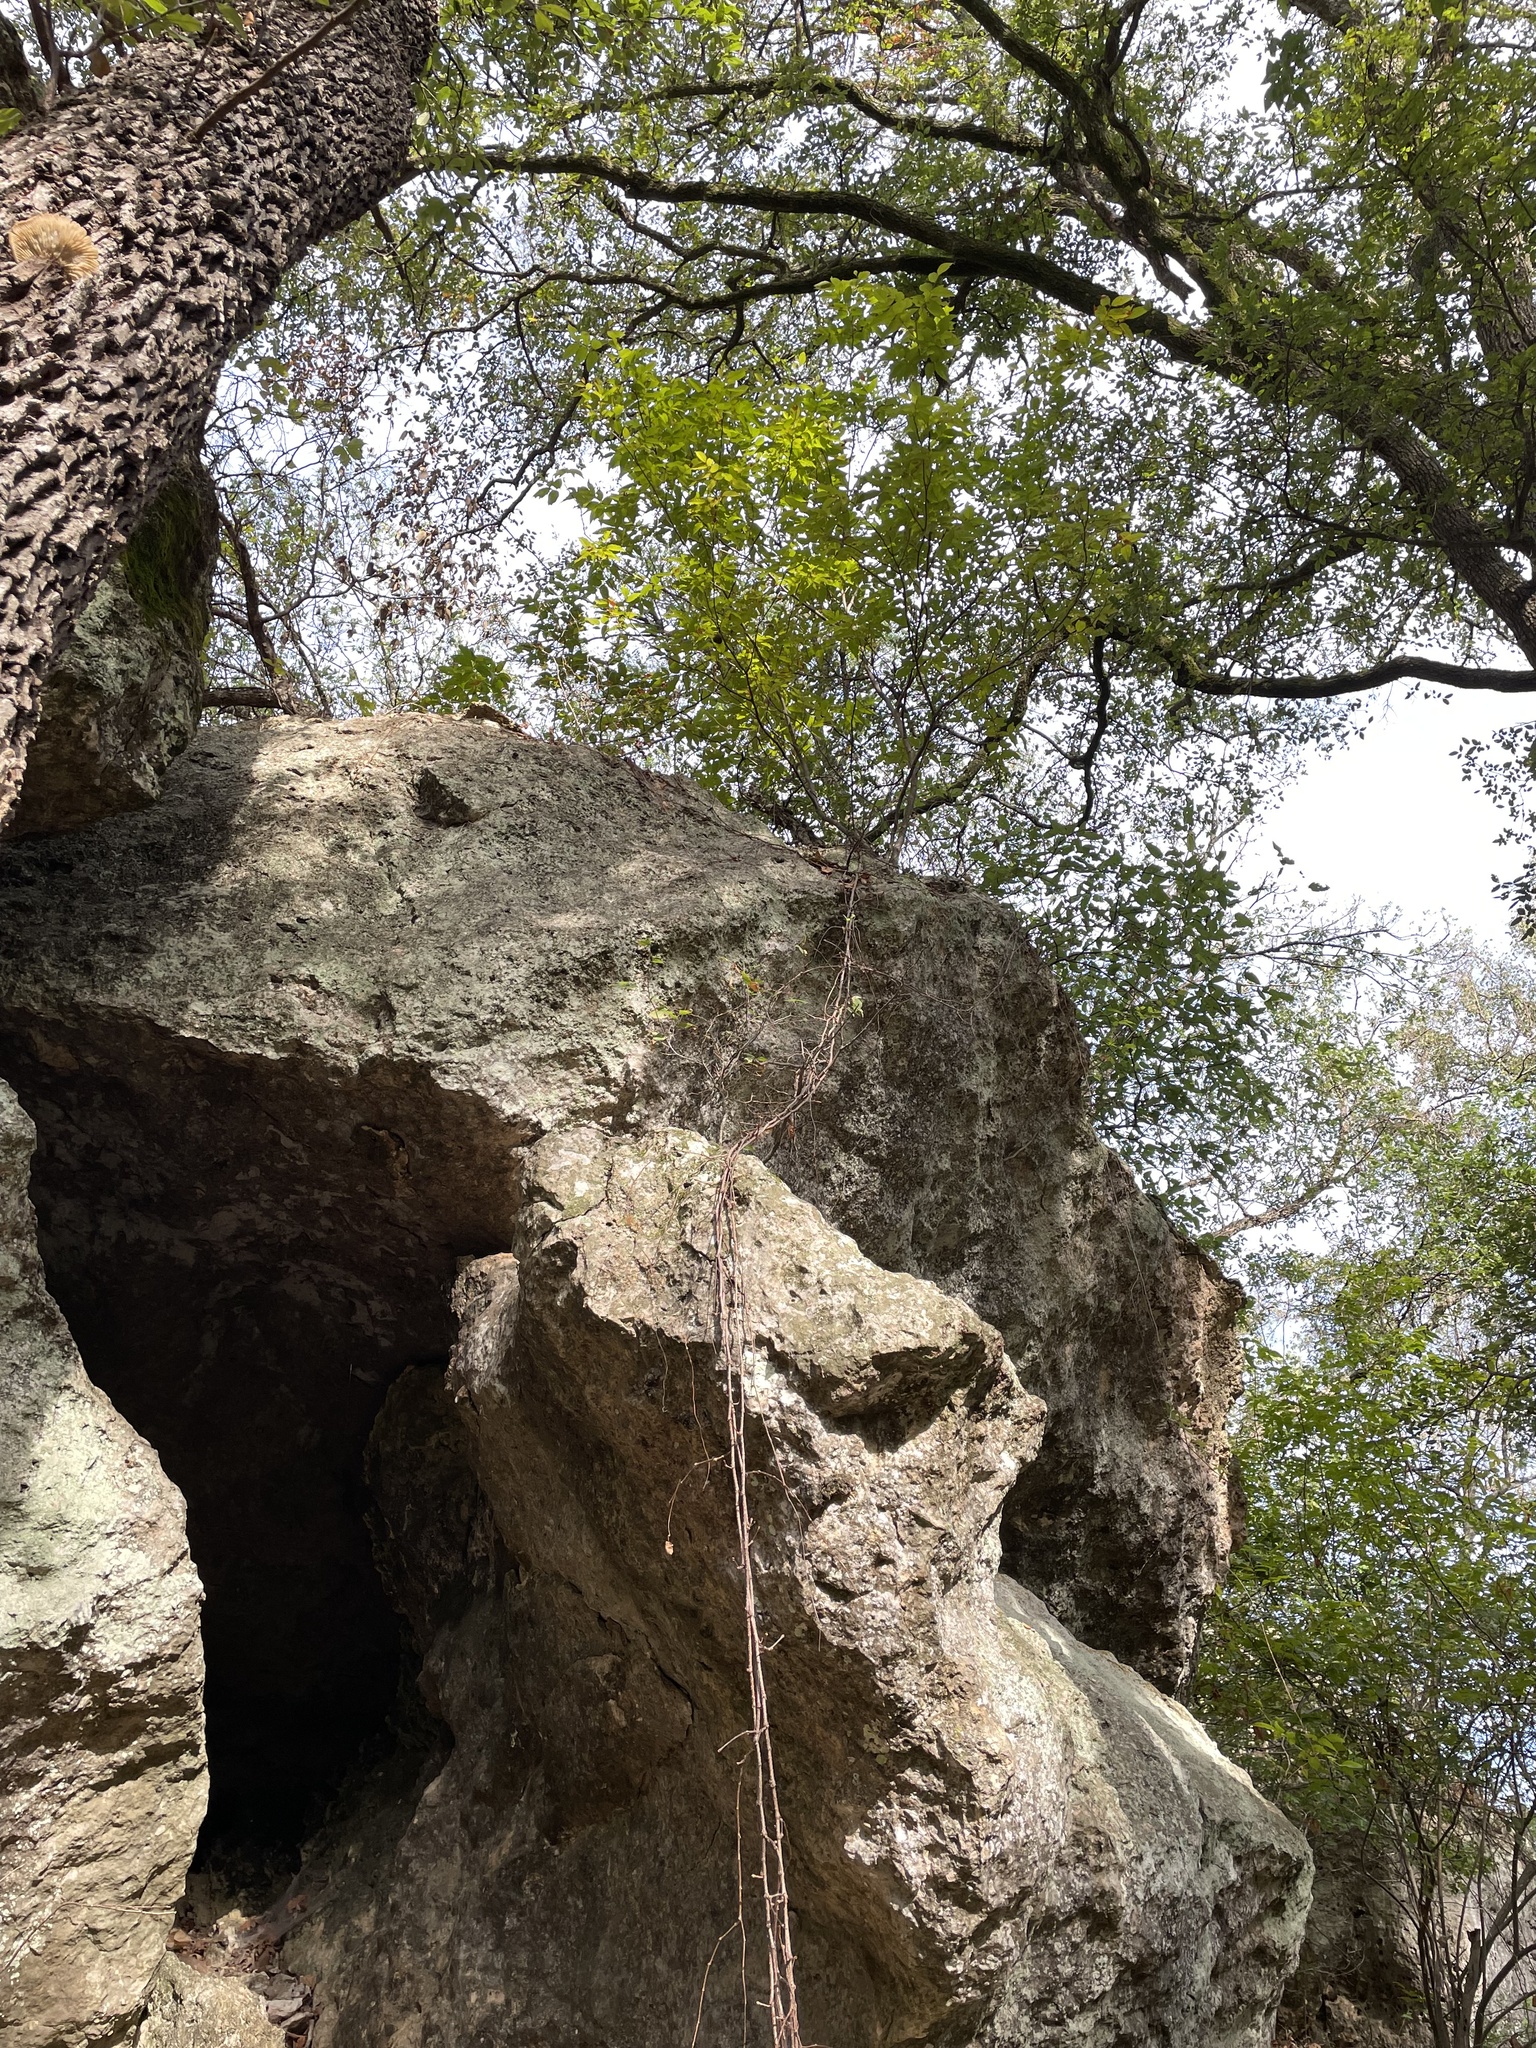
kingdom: Plantae
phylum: Tracheophyta
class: Magnoliopsida
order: Sapindales
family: Sapindaceae
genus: Ungnadia
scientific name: Ungnadia speciosa
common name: Texas-buckeye
